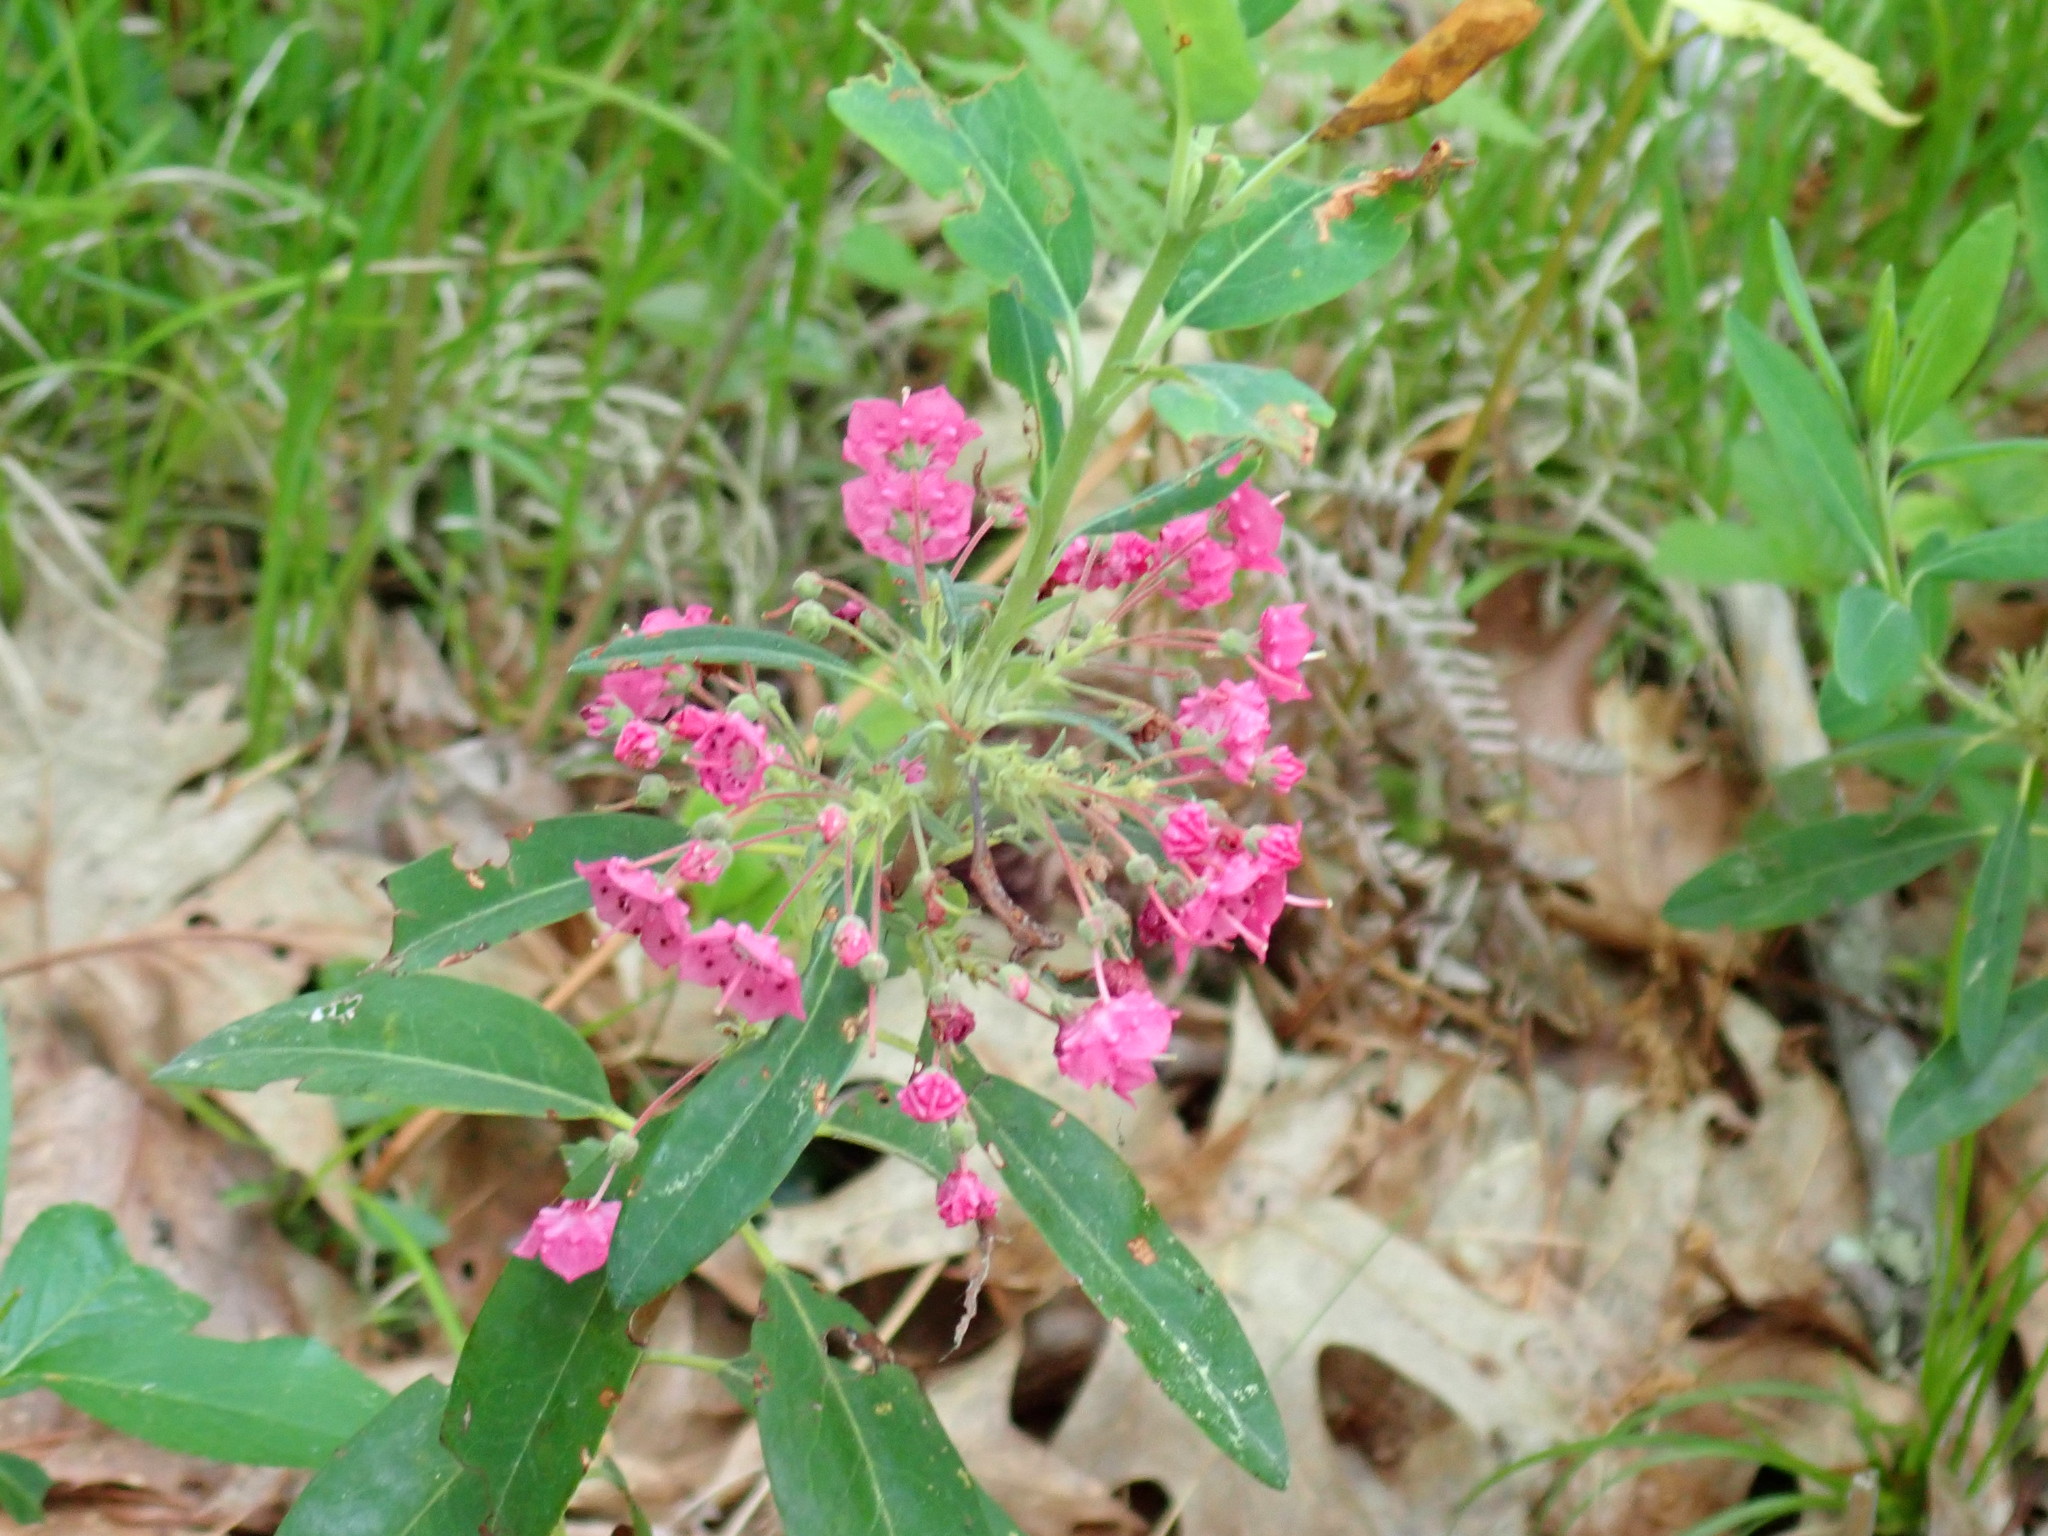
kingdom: Plantae
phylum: Tracheophyta
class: Magnoliopsida
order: Ericales
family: Ericaceae
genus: Kalmia
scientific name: Kalmia angustifolia
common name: Sheep-laurel
